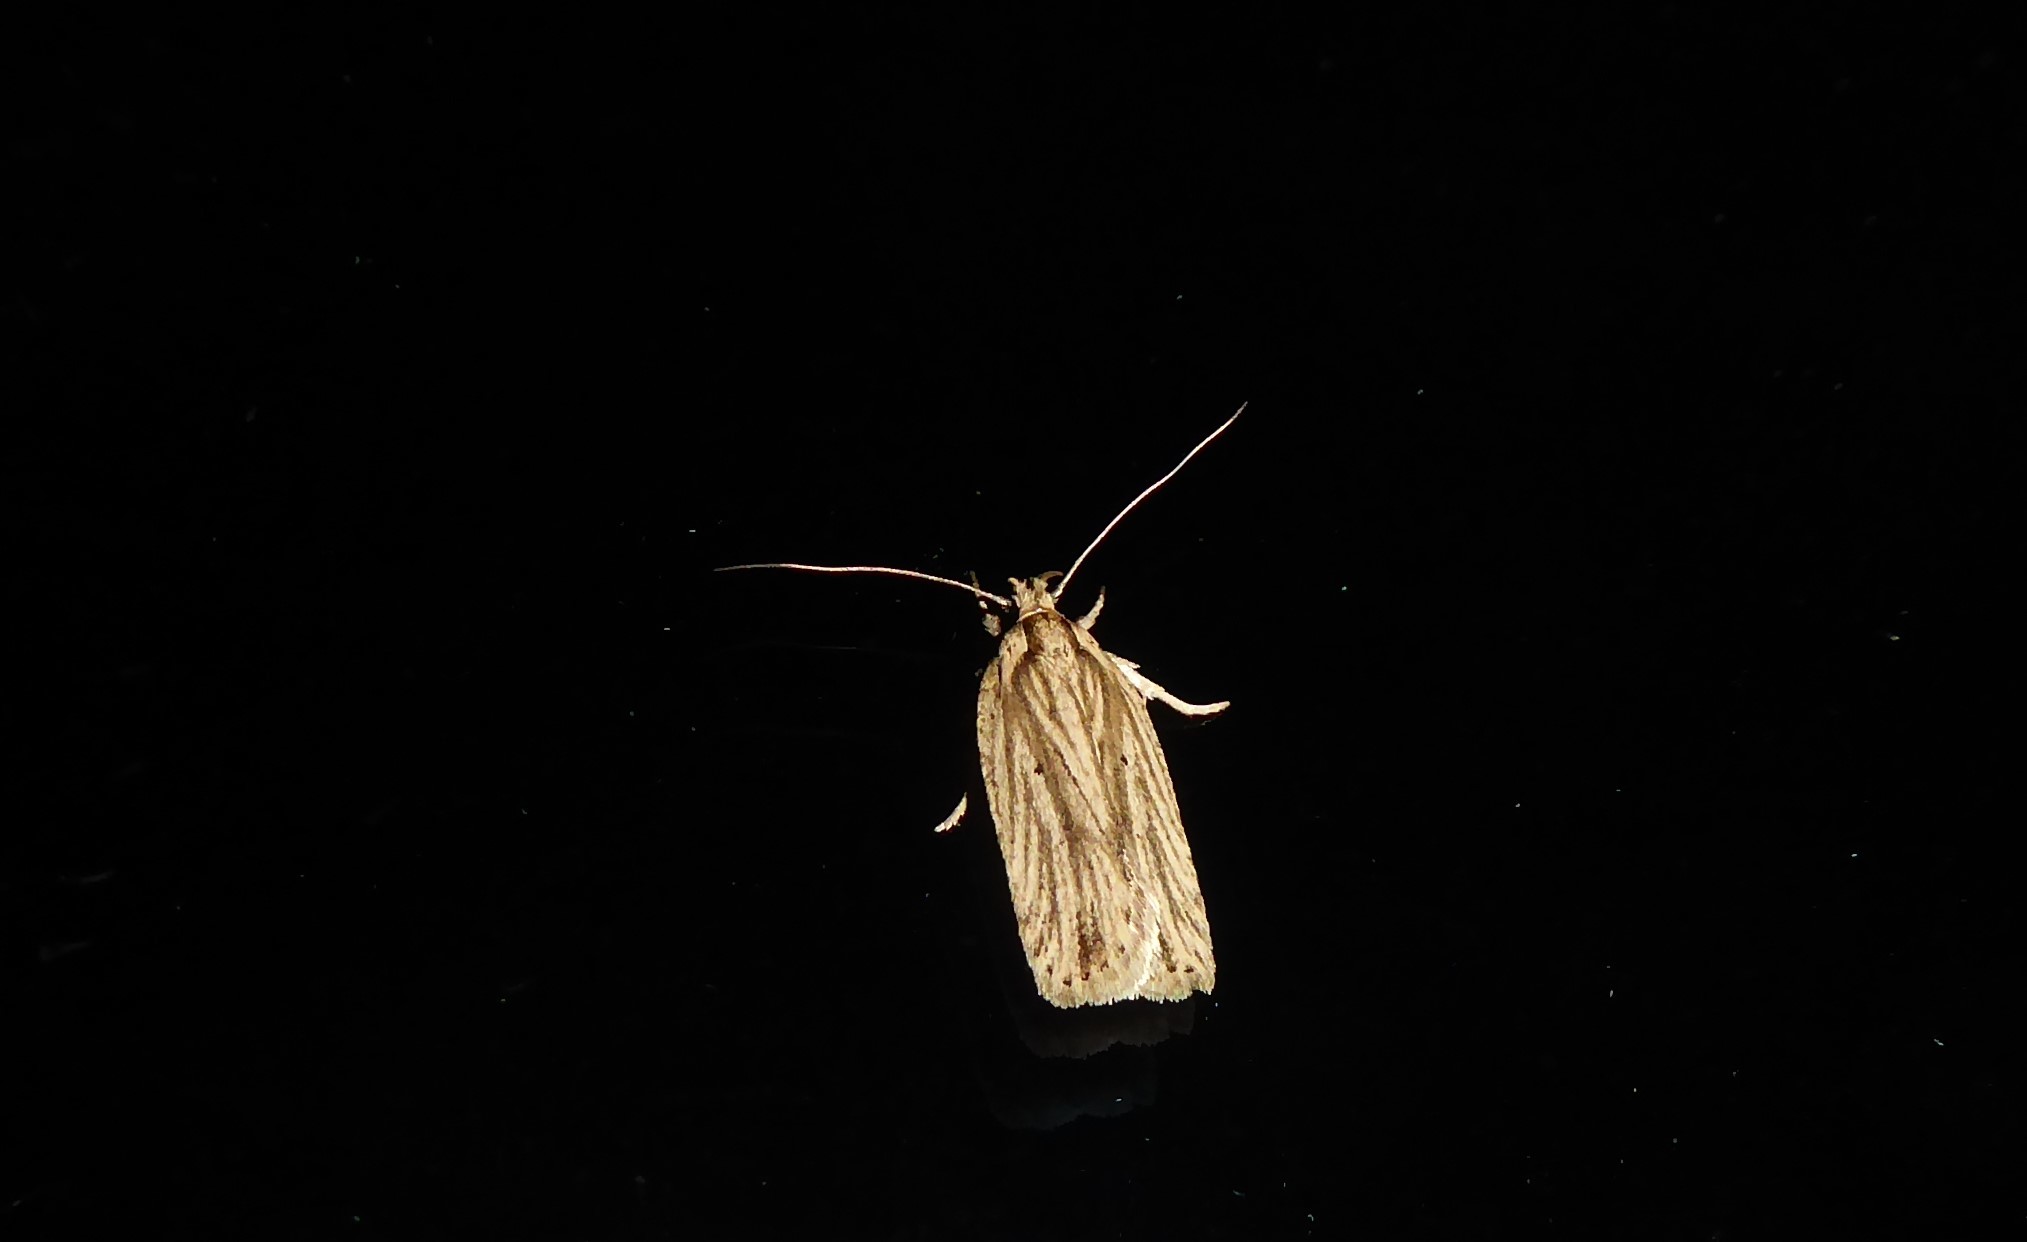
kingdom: Animalia
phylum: Arthropoda
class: Insecta
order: Lepidoptera
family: Depressariidae
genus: Agonopterix
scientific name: Agonopterix
